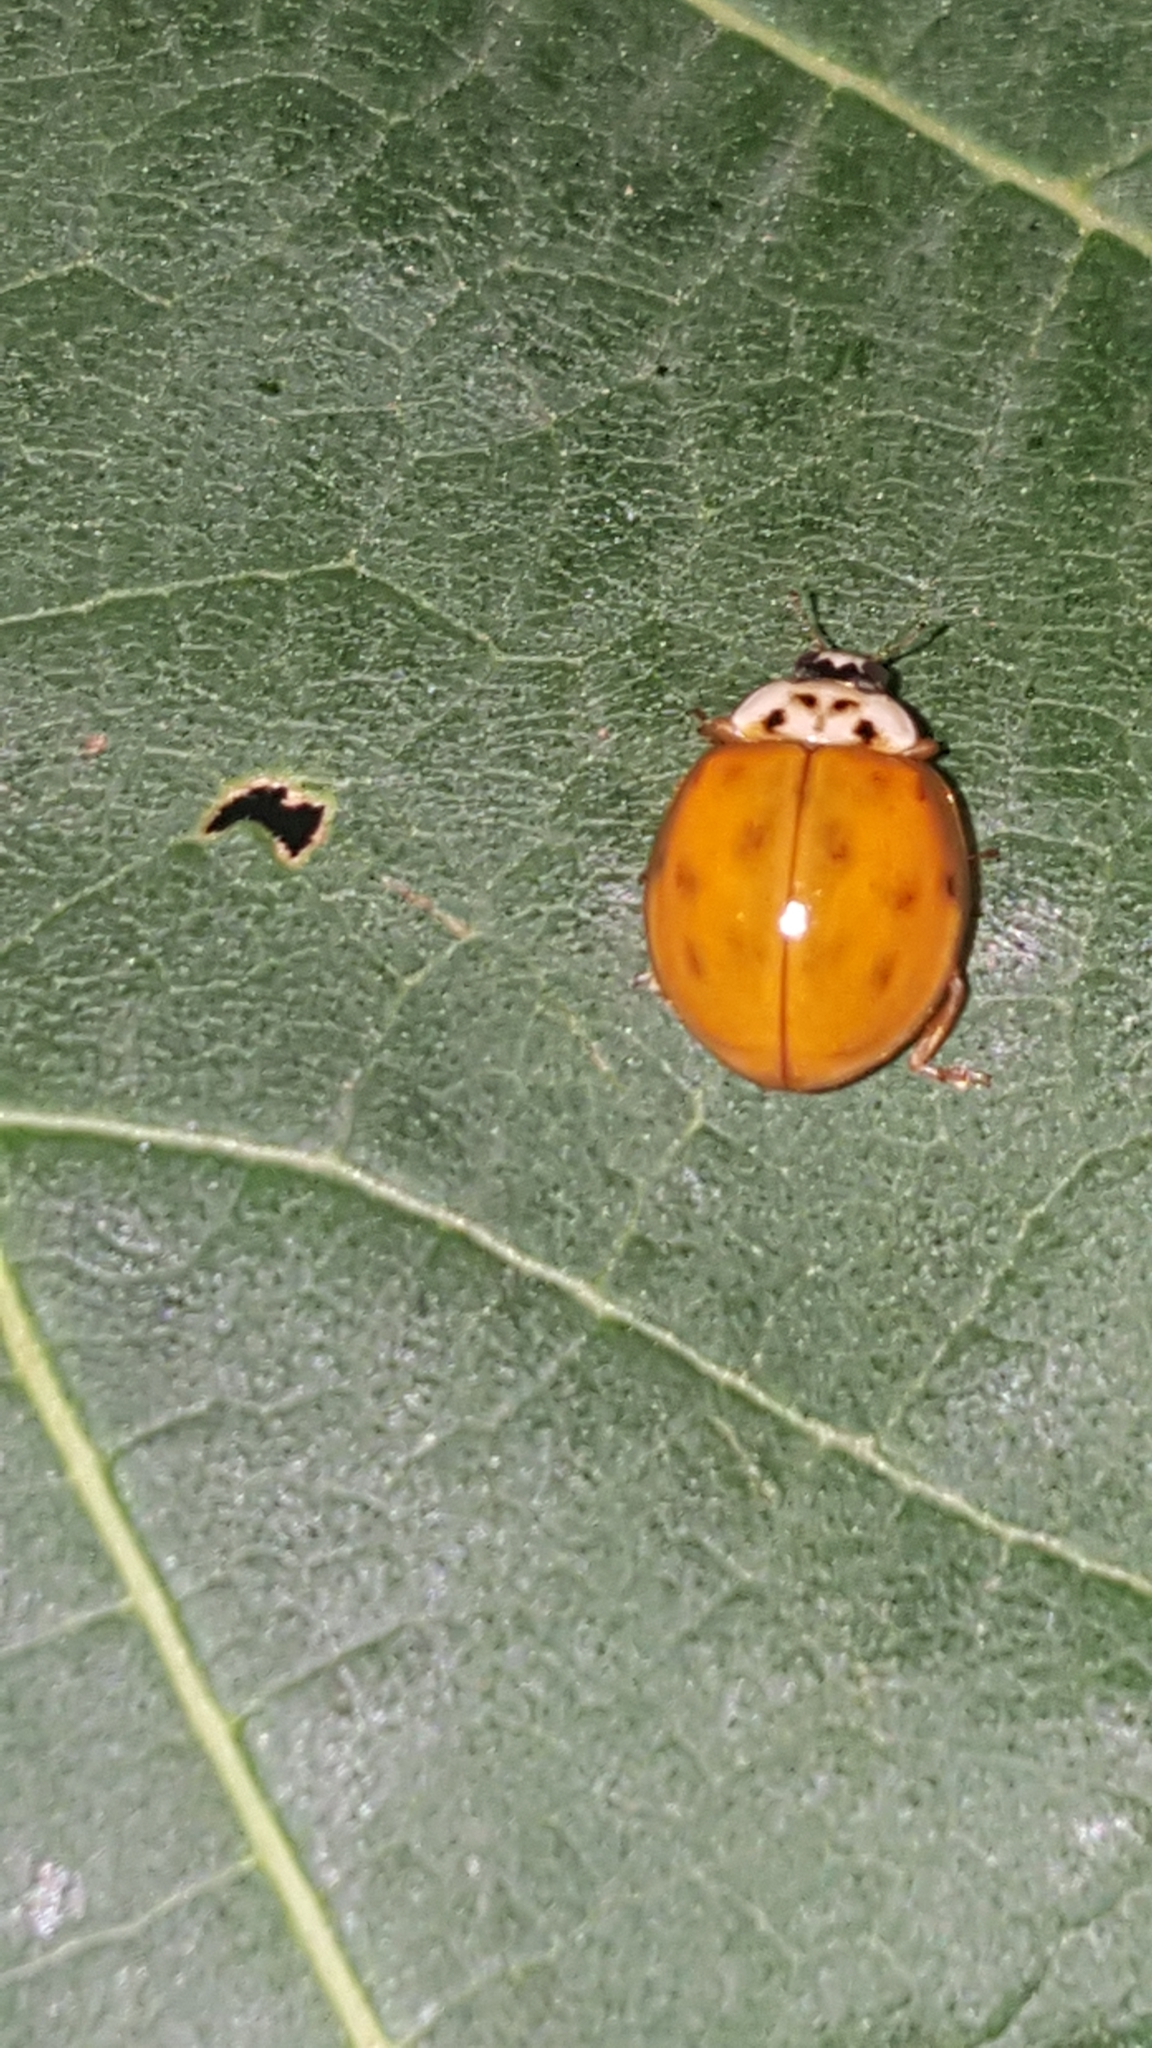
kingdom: Animalia
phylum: Arthropoda
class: Insecta
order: Coleoptera
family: Coccinellidae
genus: Harmonia
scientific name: Harmonia axyridis
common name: Harlequin ladybird
